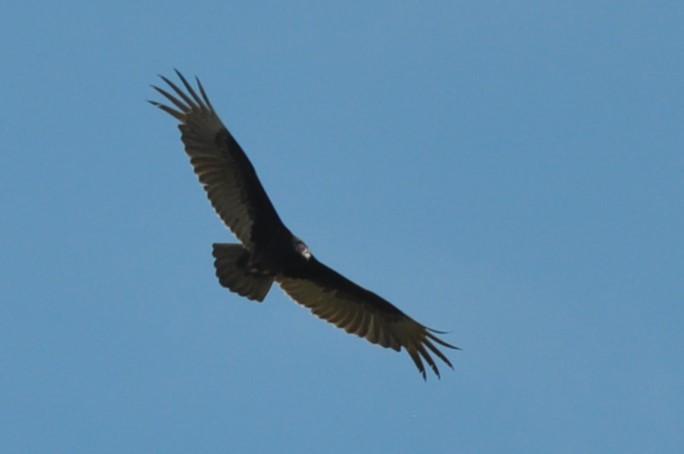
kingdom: Animalia
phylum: Chordata
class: Aves
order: Accipitriformes
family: Cathartidae
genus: Cathartes
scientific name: Cathartes aura
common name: Turkey vulture
